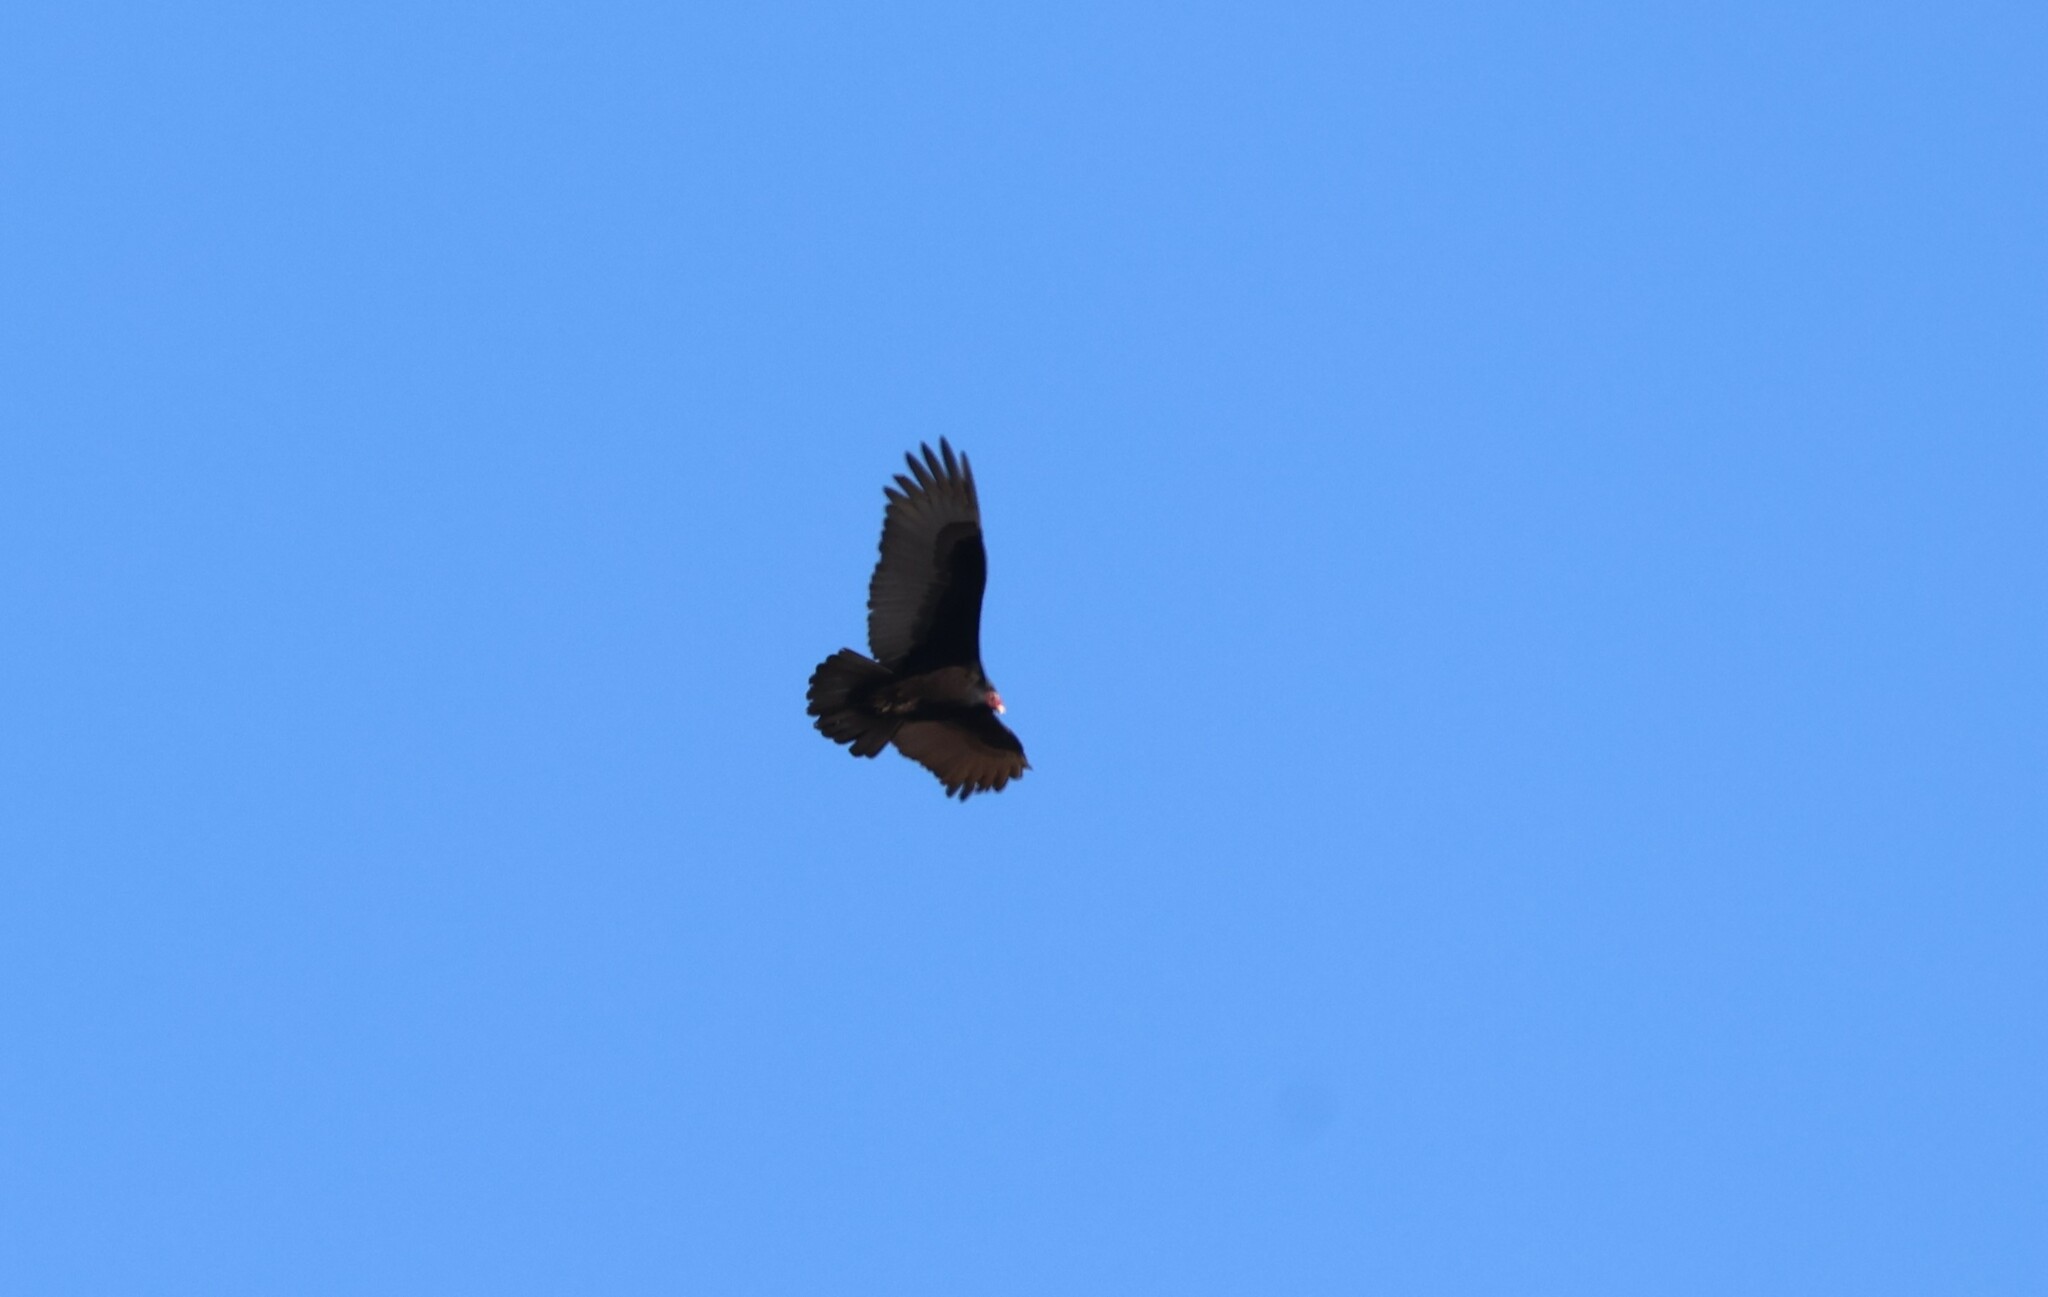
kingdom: Animalia
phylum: Chordata
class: Aves
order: Accipitriformes
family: Cathartidae
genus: Cathartes
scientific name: Cathartes aura
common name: Turkey vulture
